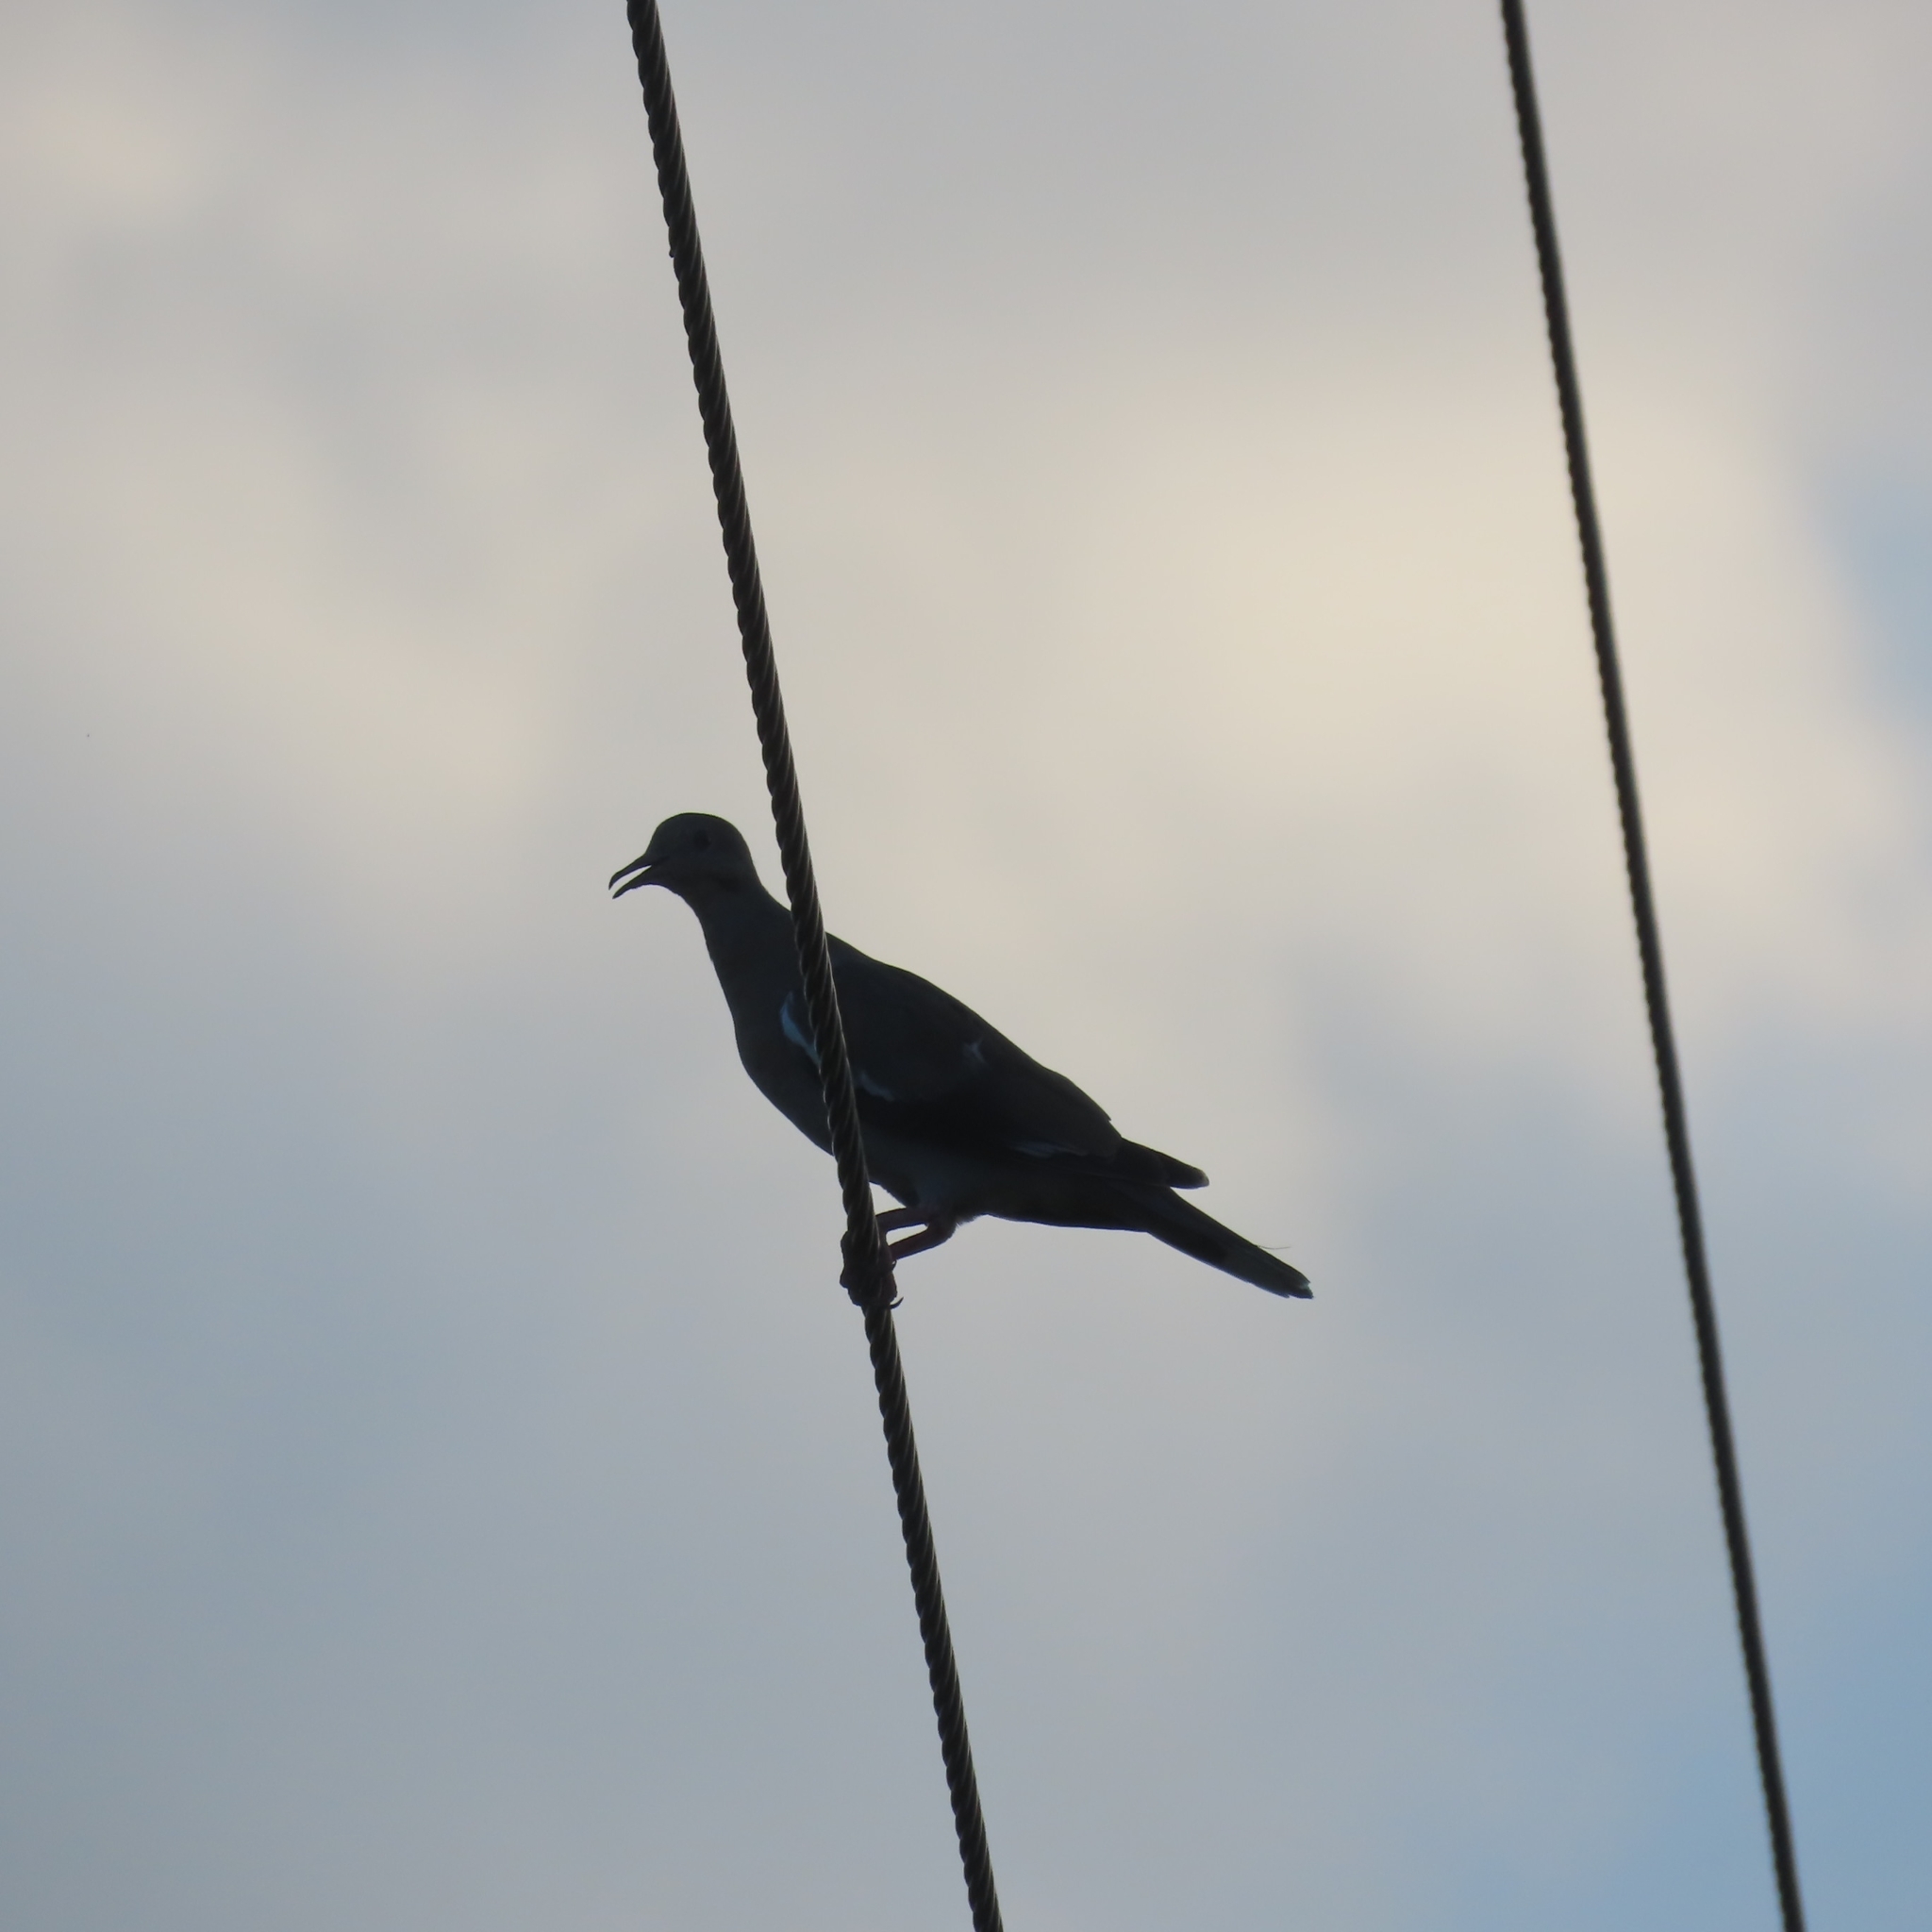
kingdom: Animalia
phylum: Chordata
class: Aves
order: Columbiformes
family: Columbidae
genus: Zenaida
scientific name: Zenaida asiatica
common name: White-winged dove
